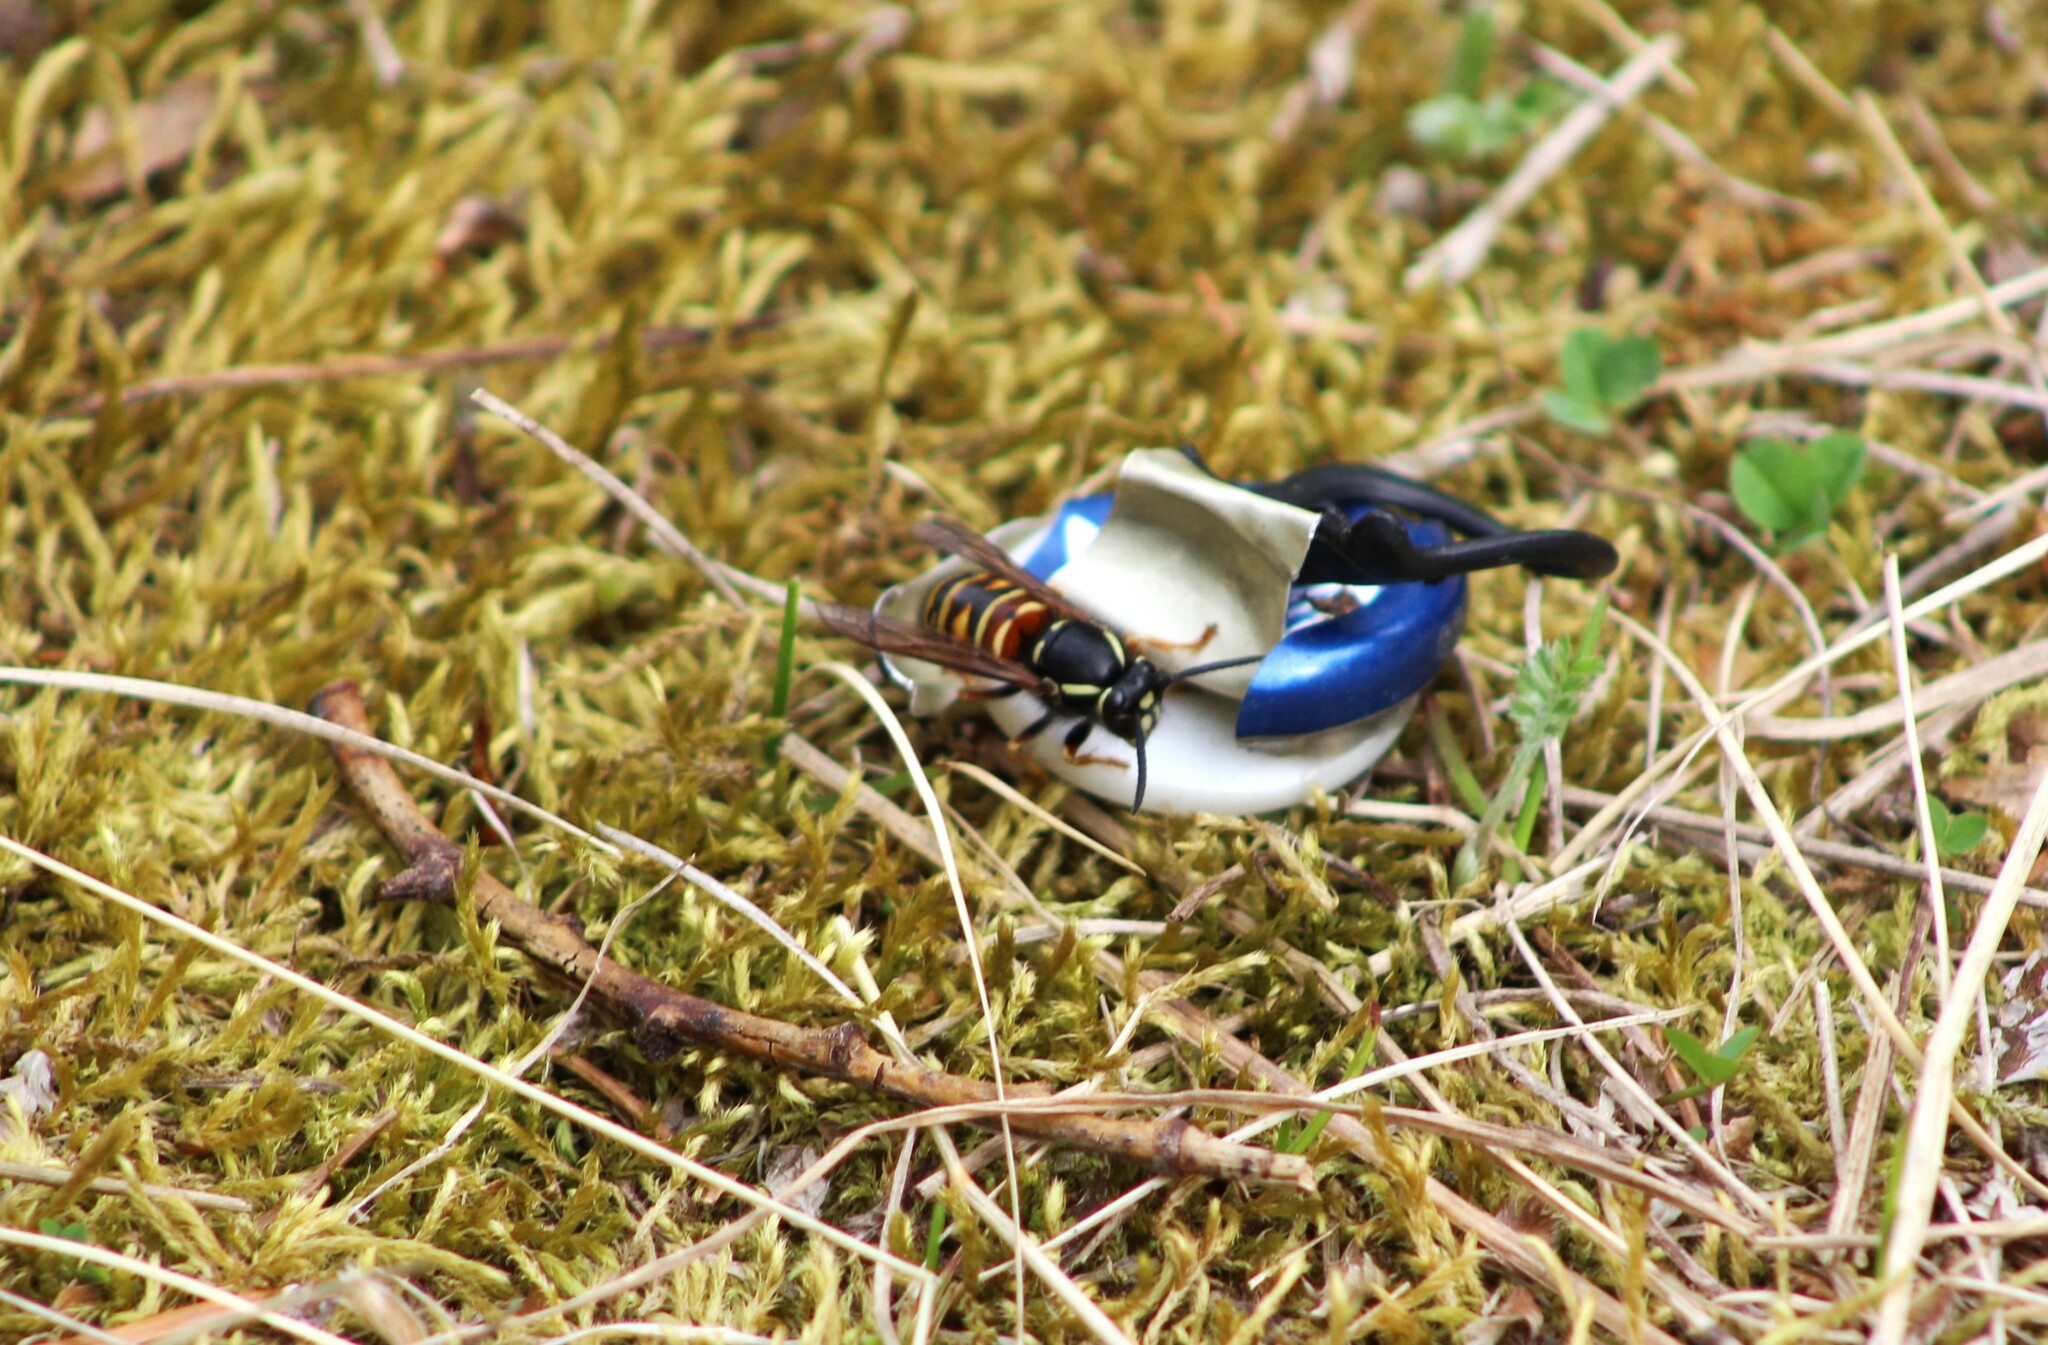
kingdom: Animalia
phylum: Arthropoda
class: Insecta
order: Hymenoptera
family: Vespidae
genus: Vespula
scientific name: Vespula rufa
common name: Red wasp
